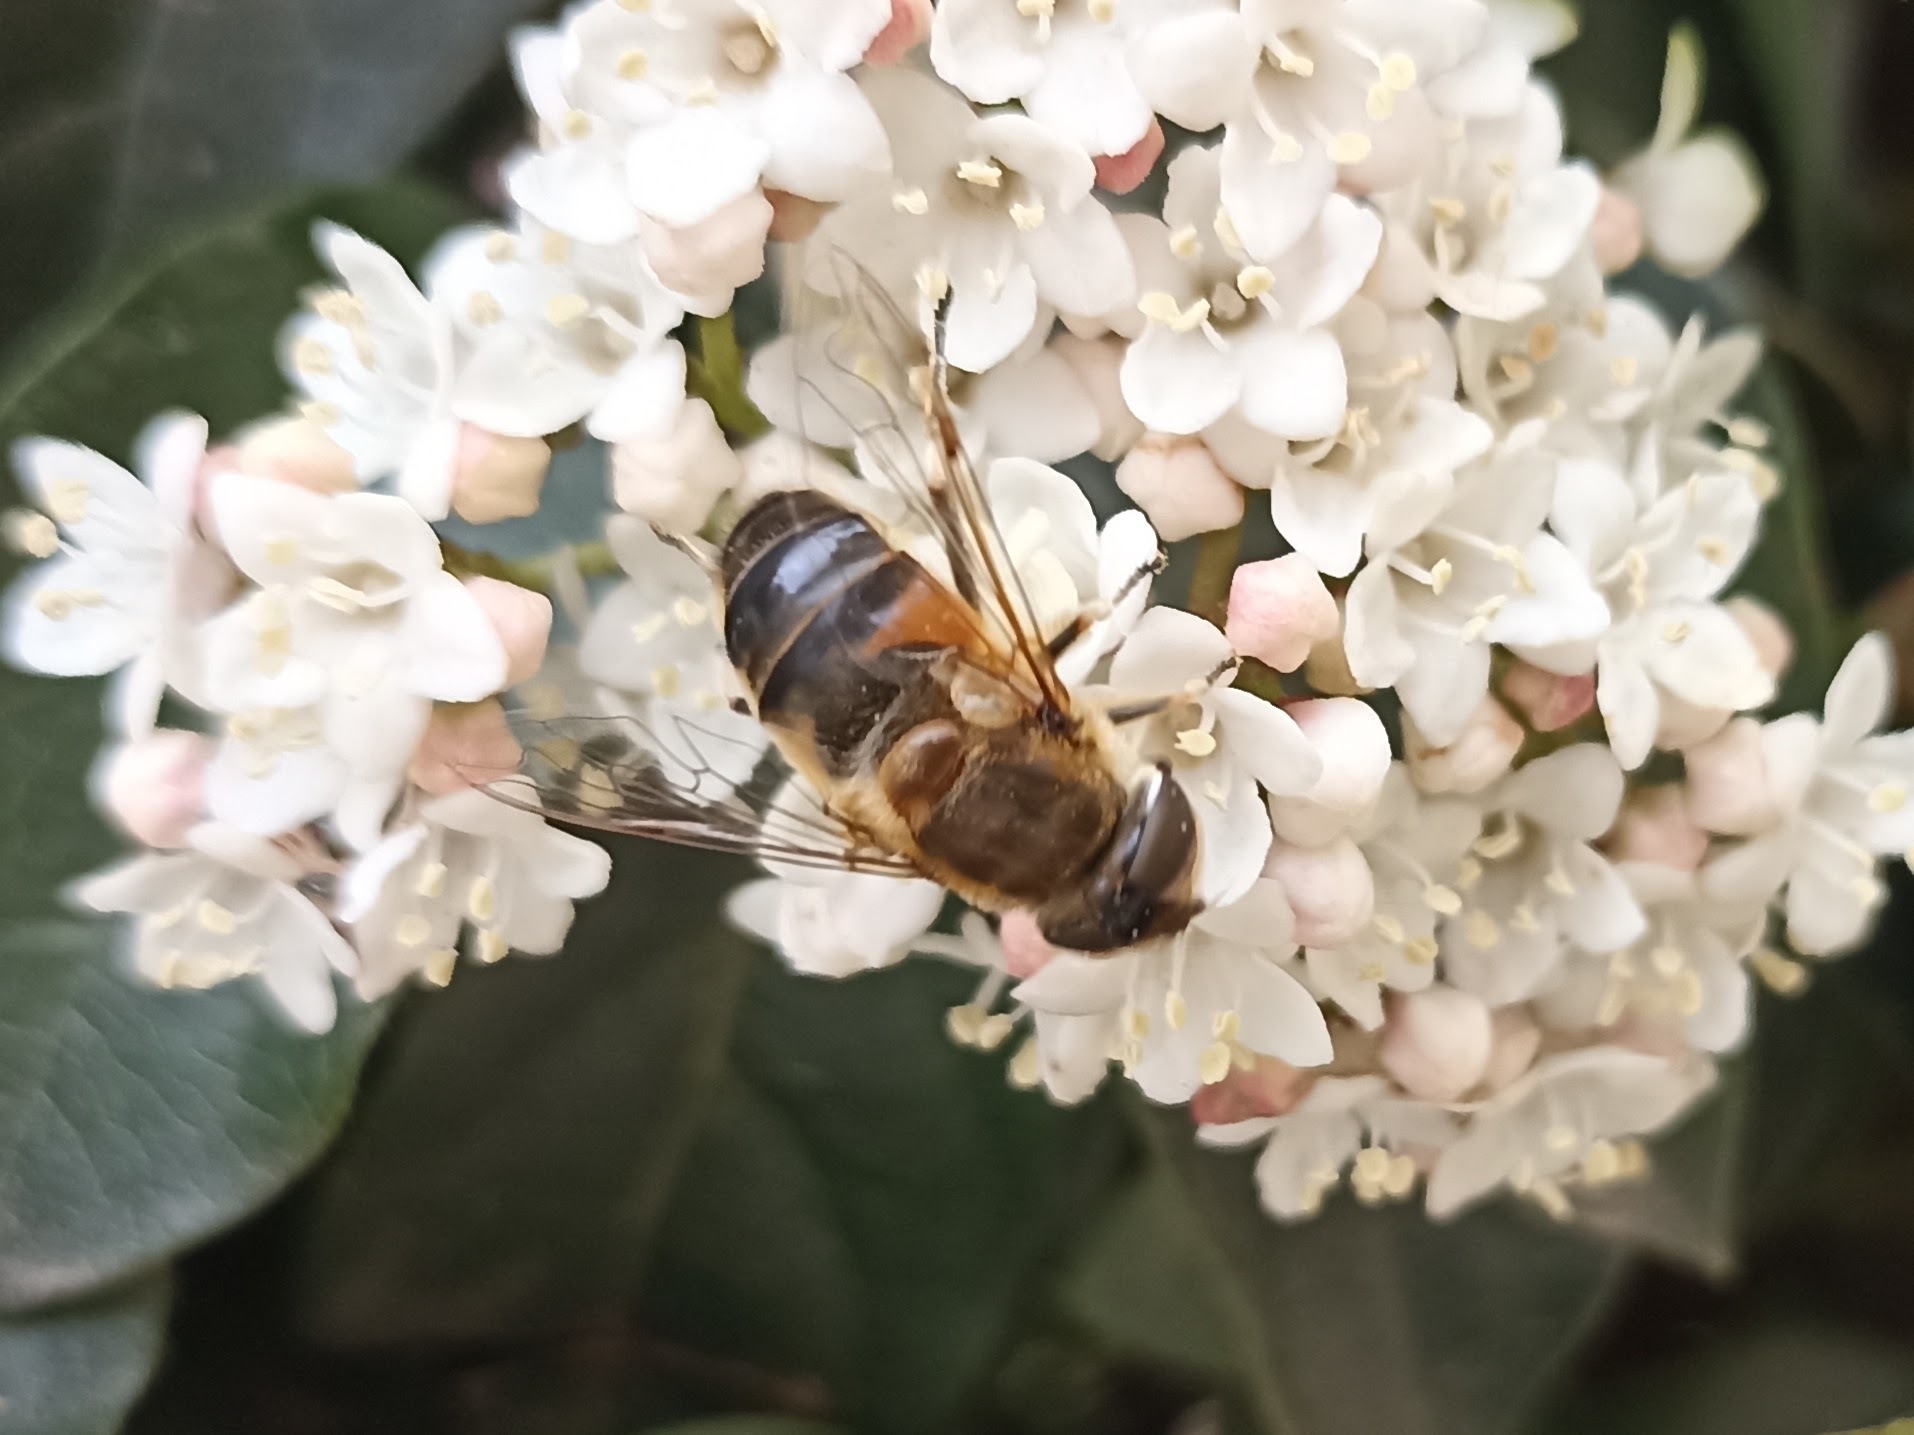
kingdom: Animalia
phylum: Arthropoda
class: Insecta
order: Diptera
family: Syrphidae
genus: Eristalis
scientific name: Eristalis pertinax
